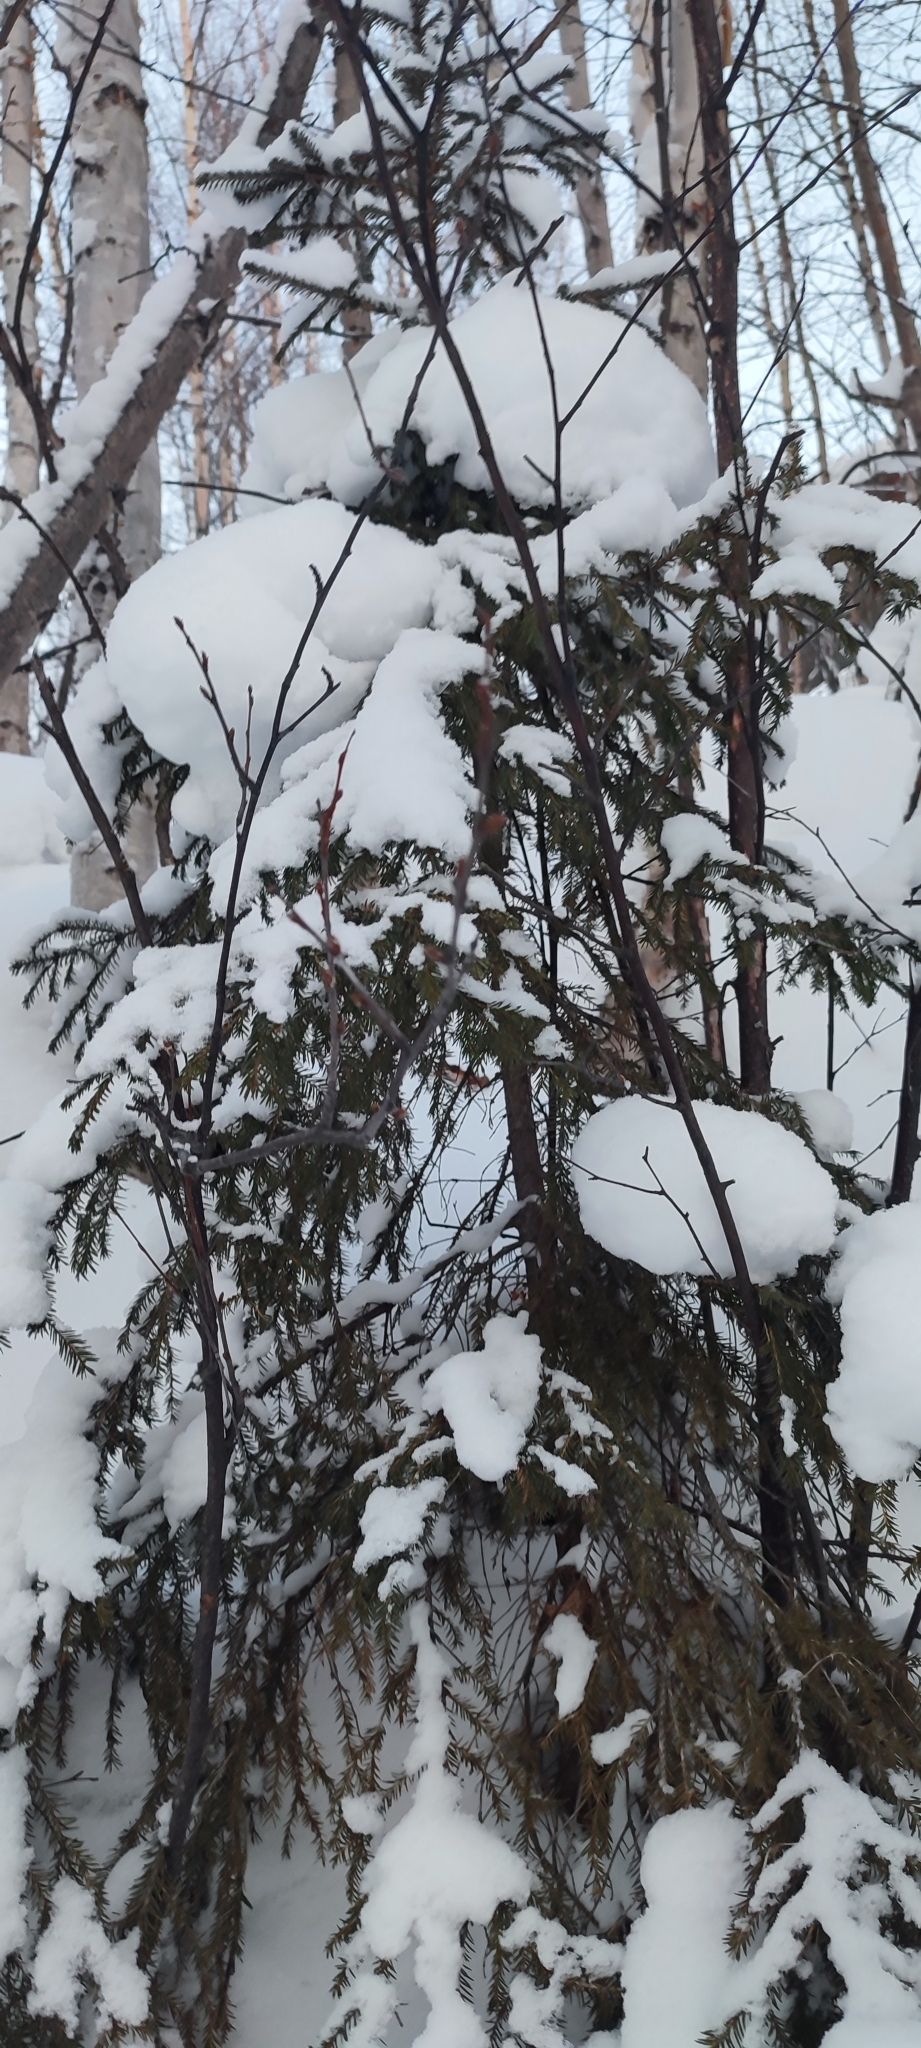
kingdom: Plantae
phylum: Tracheophyta
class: Pinopsida
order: Pinales
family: Pinaceae
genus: Picea
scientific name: Picea obovata
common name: Siberian spruce
